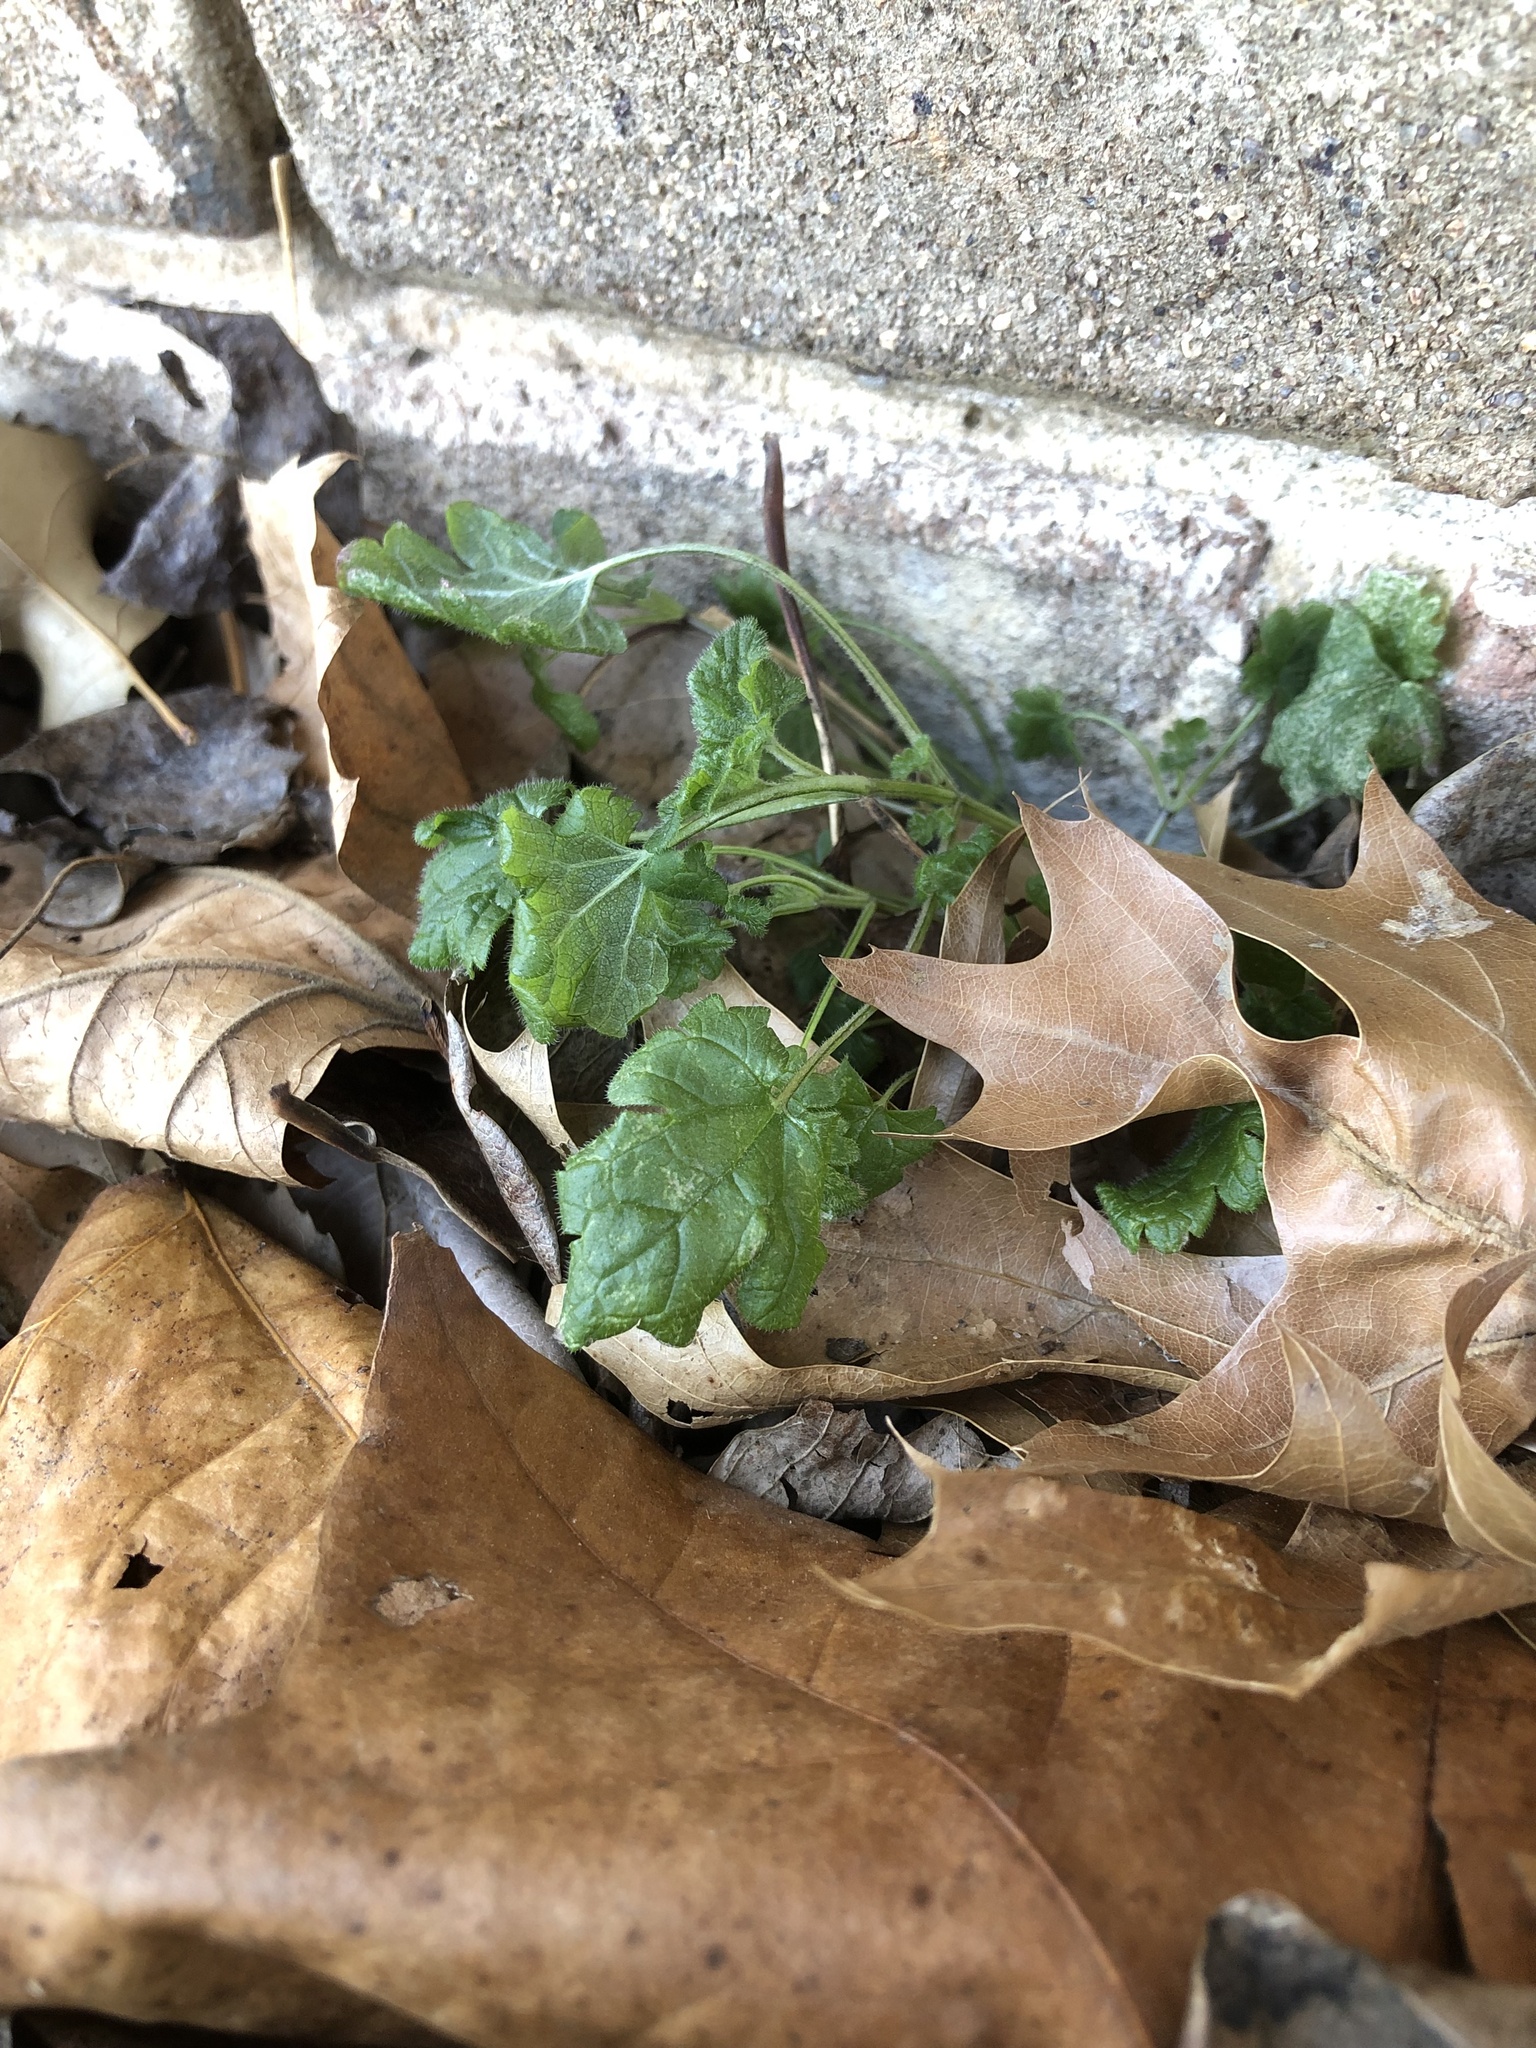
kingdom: Plantae
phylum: Tracheophyta
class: Magnoliopsida
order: Lamiales
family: Lamiaceae
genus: Lamium
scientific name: Lamium amplexicaule
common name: Henbit dead-nettle
